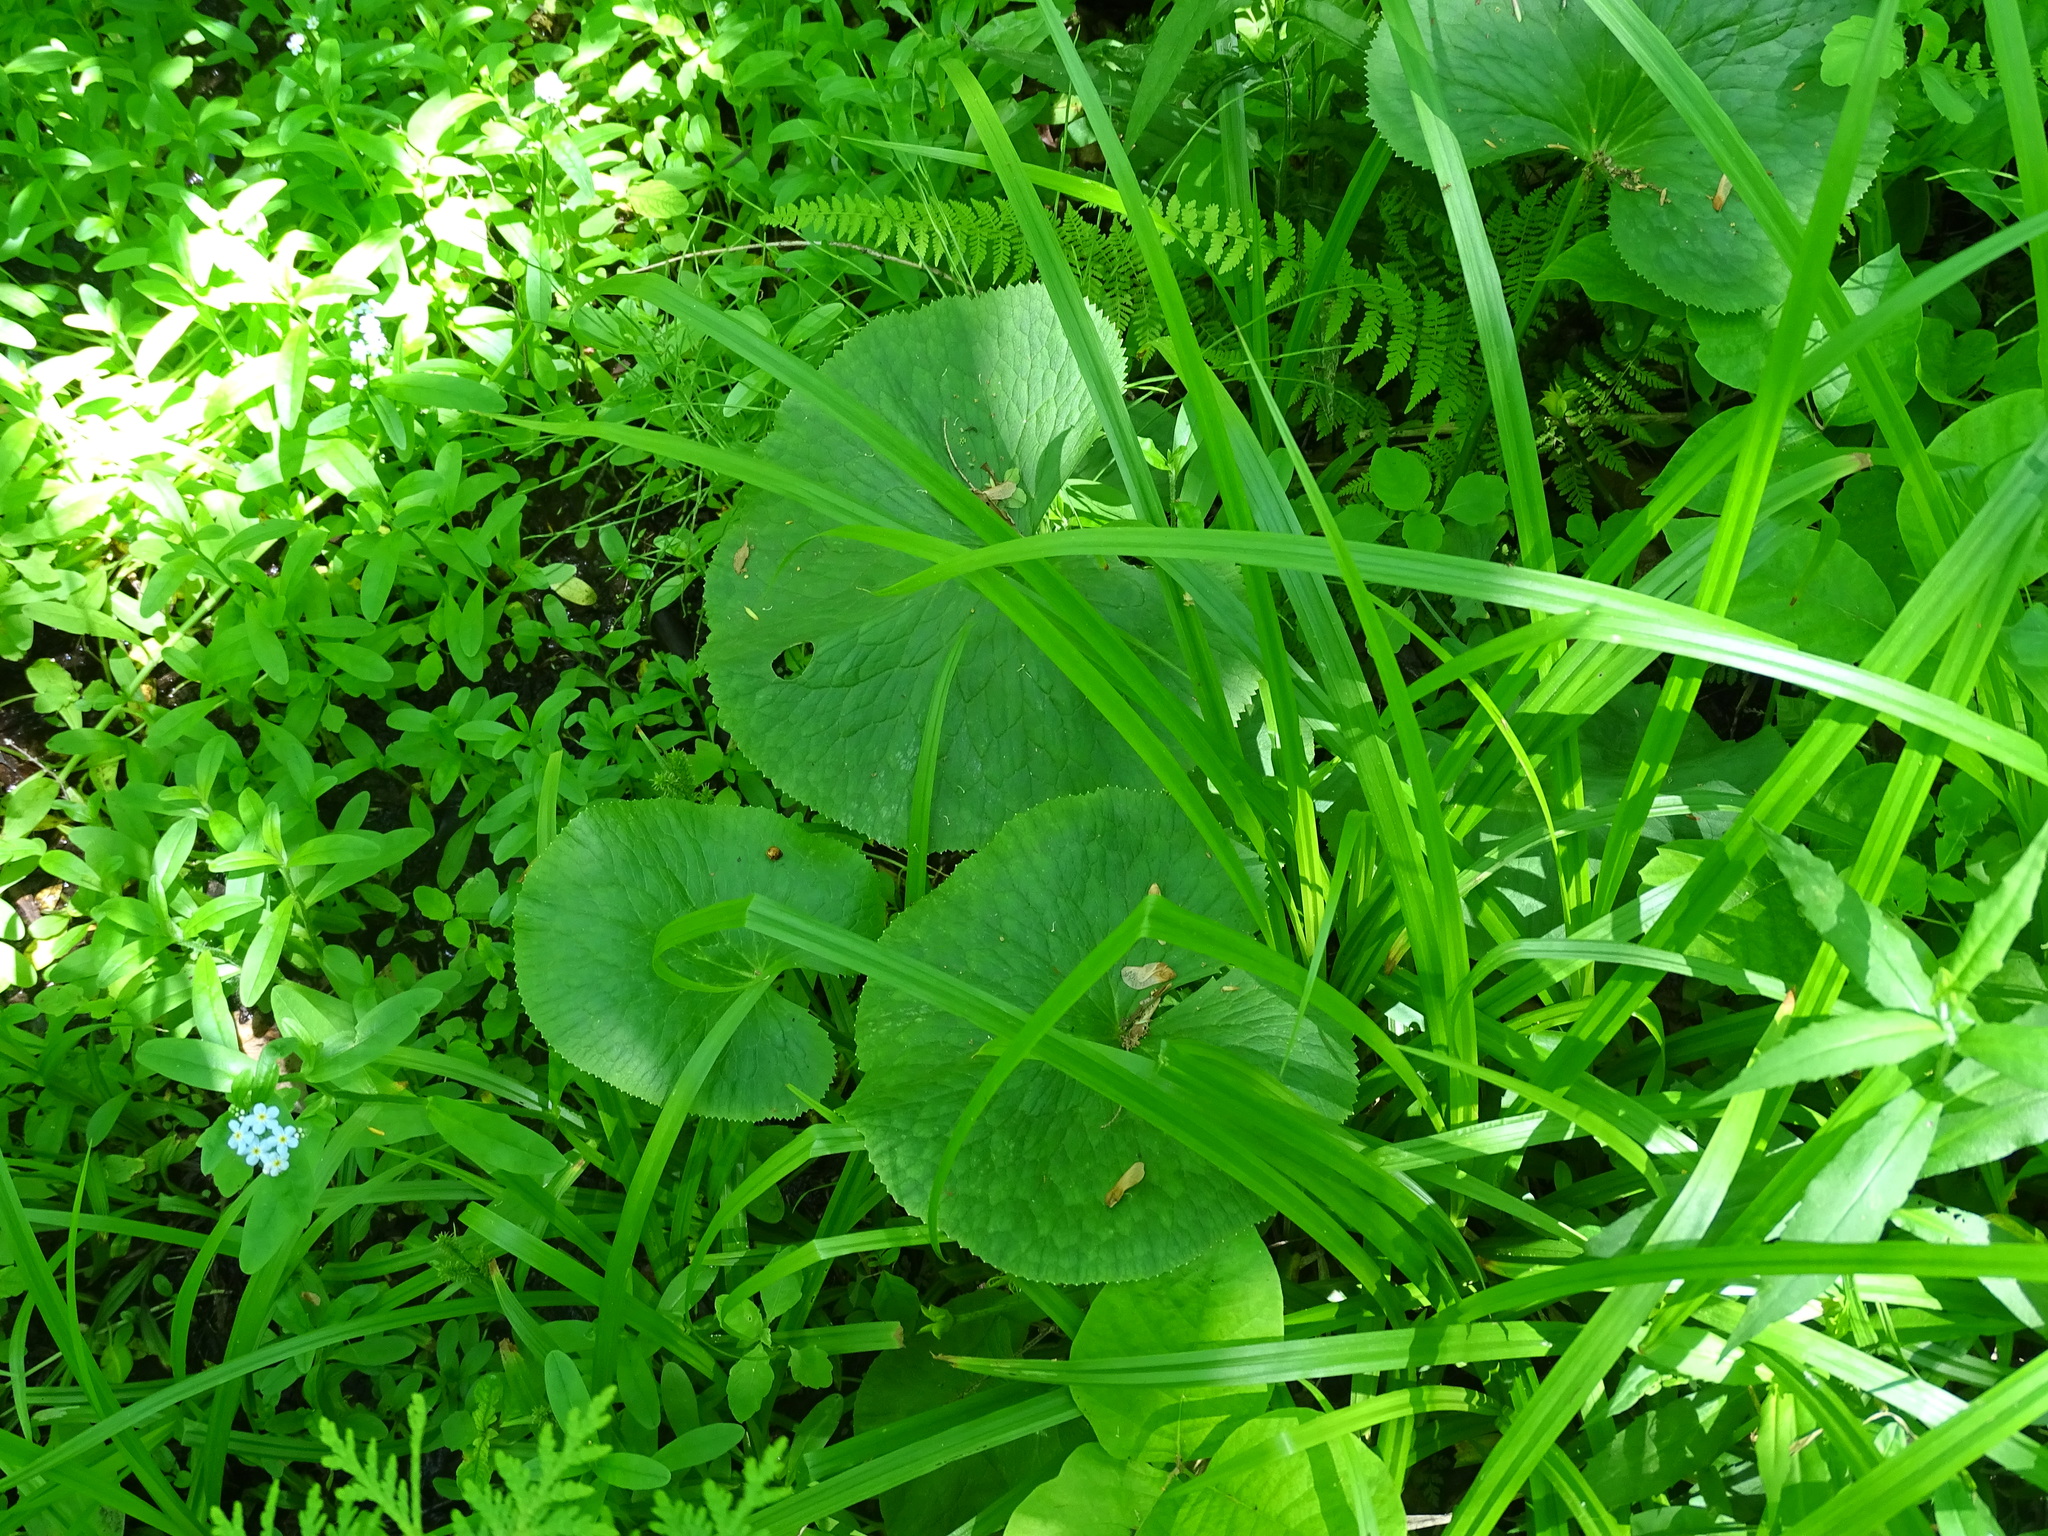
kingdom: Plantae
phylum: Tracheophyta
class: Magnoliopsida
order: Ranunculales
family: Ranunculaceae
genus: Caltha
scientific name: Caltha palustris
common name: Marsh marigold
